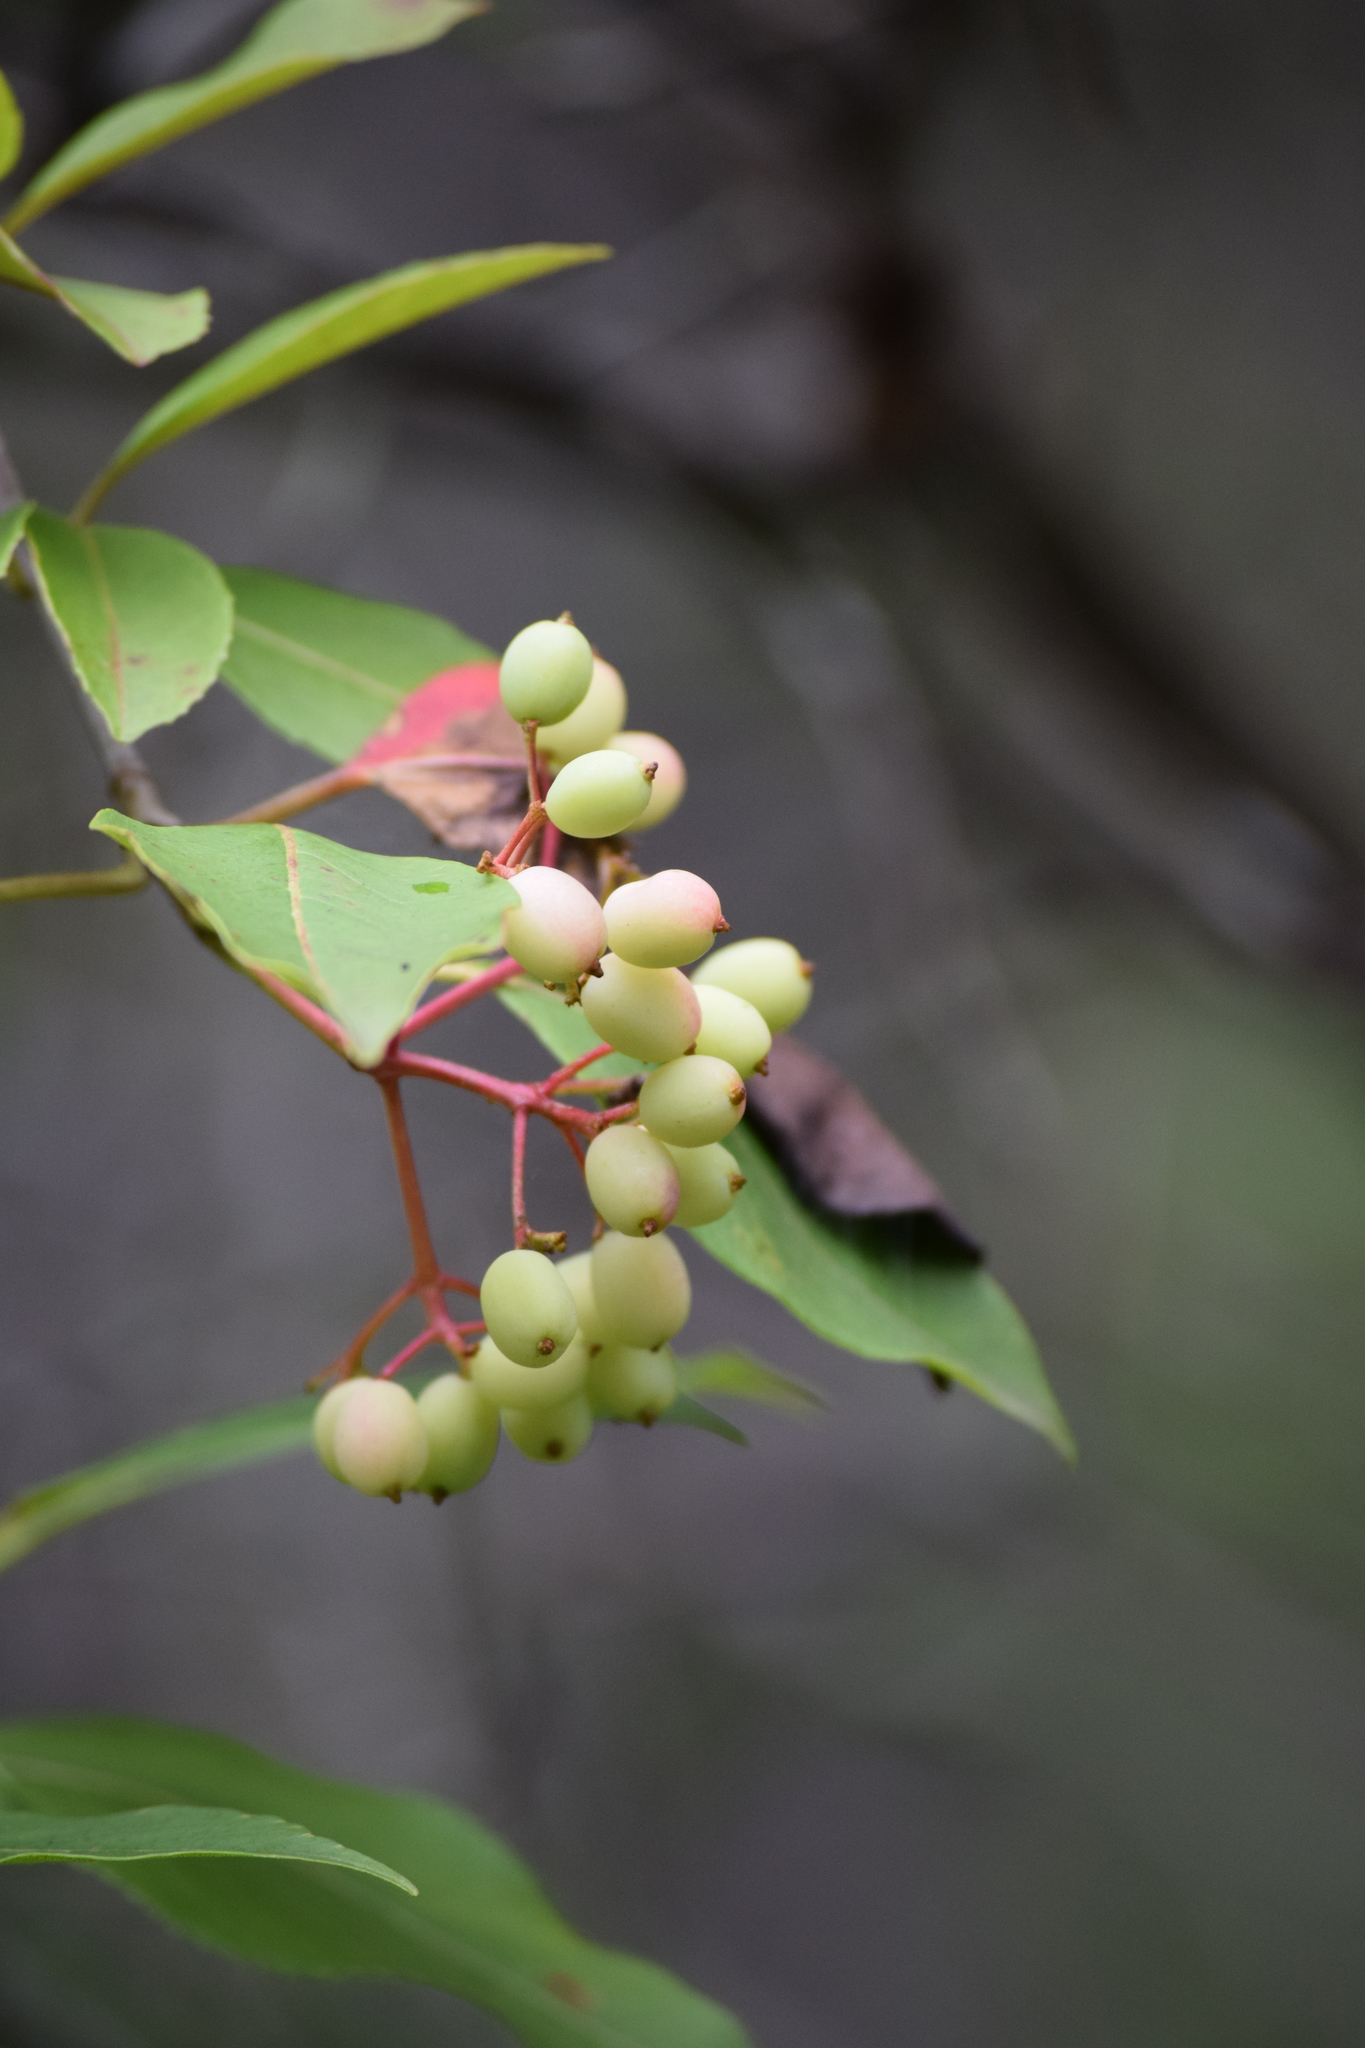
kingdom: Plantae
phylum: Tracheophyta
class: Magnoliopsida
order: Dipsacales
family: Viburnaceae
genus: Viburnum
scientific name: Viburnum cassinoides
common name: Swamp haw
